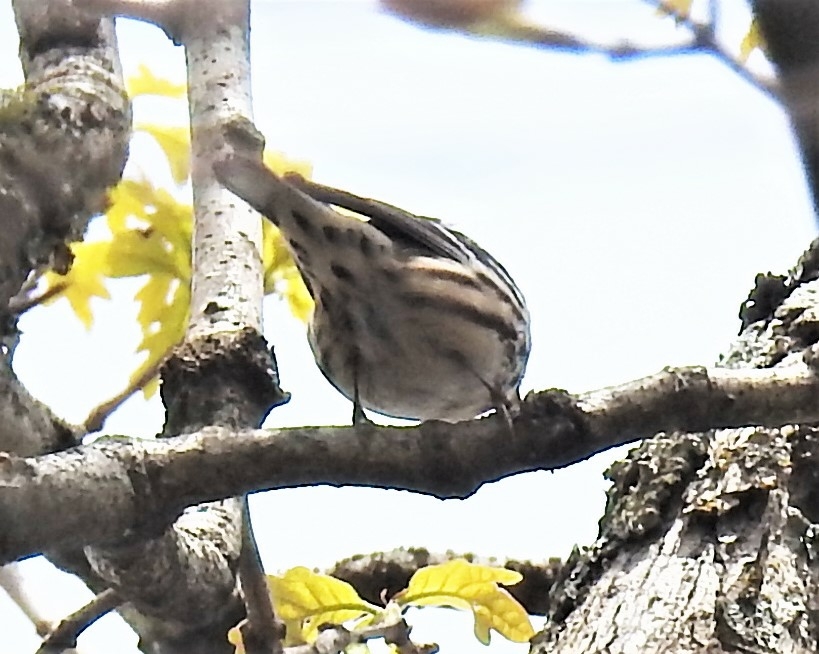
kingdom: Animalia
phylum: Chordata
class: Aves
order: Passeriformes
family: Parulidae
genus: Mniotilta
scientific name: Mniotilta varia
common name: Black-and-white warbler
